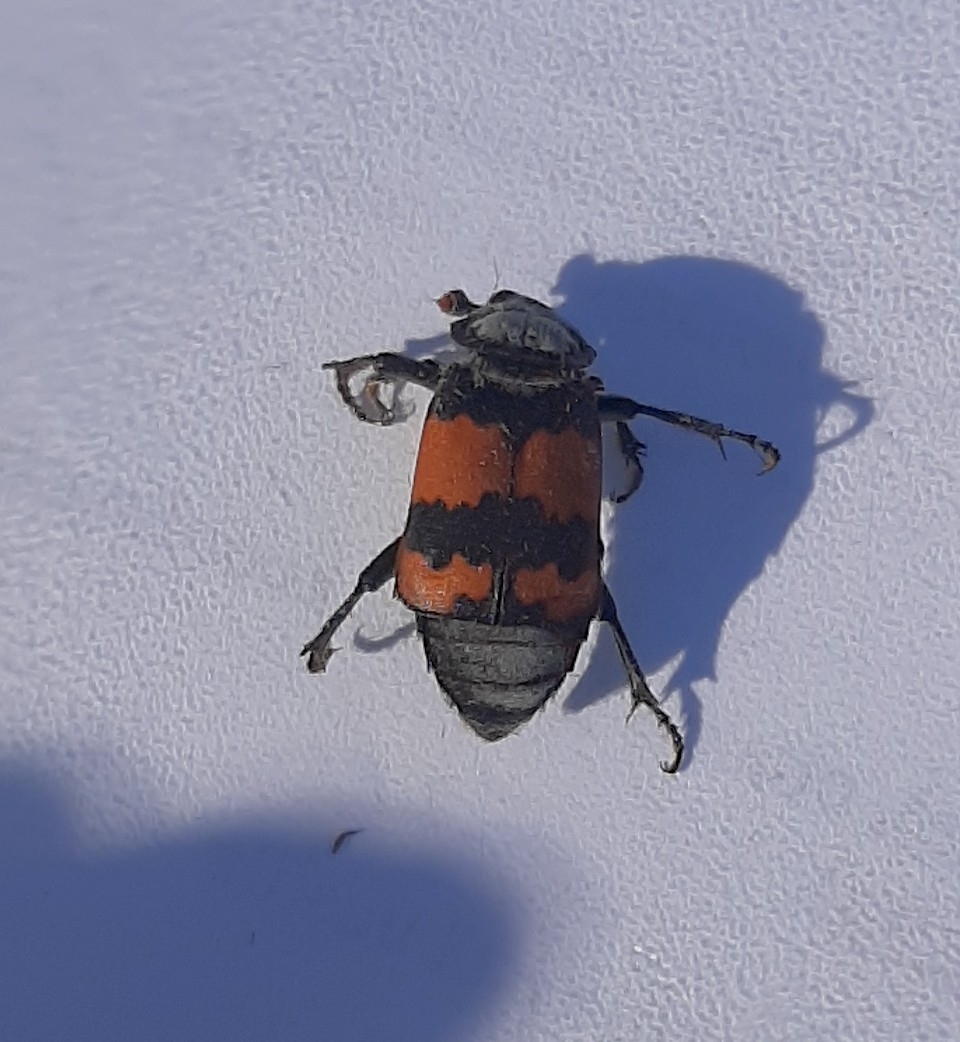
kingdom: Animalia
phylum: Arthropoda
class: Insecta
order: Coleoptera
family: Staphylinidae
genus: Nicrophorus
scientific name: Nicrophorus investigator
